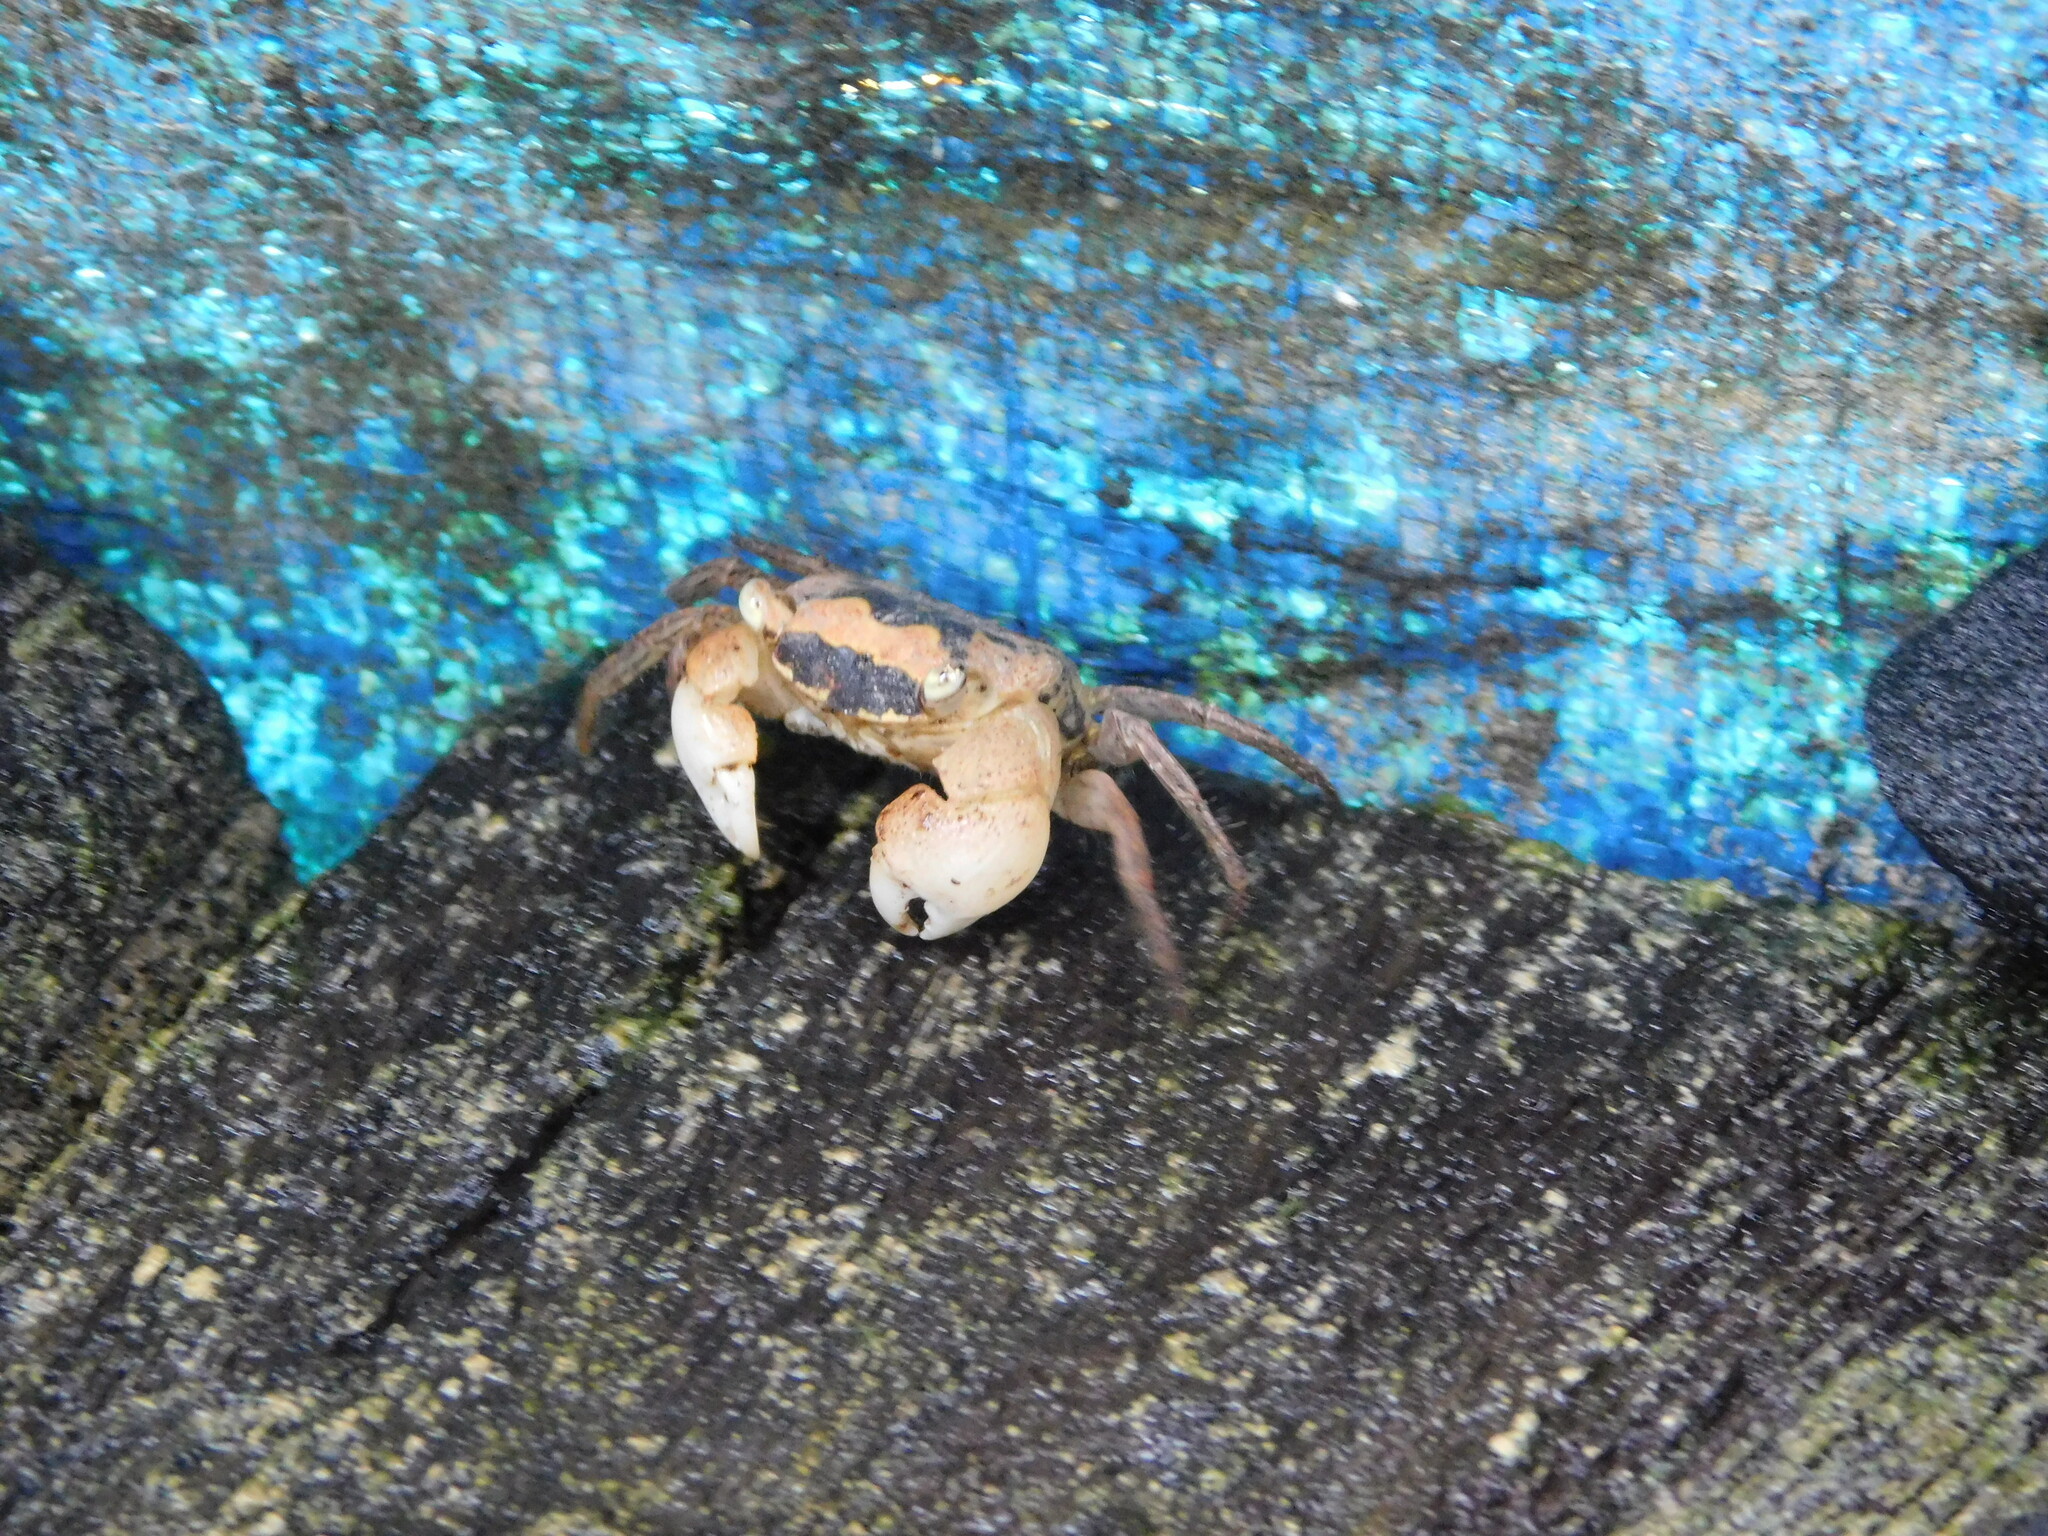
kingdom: Animalia
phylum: Arthropoda
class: Malacostraca
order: Decapoda
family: Sesarmidae
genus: Metasesarma
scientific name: Metasesarma obesum
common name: Marble crab
